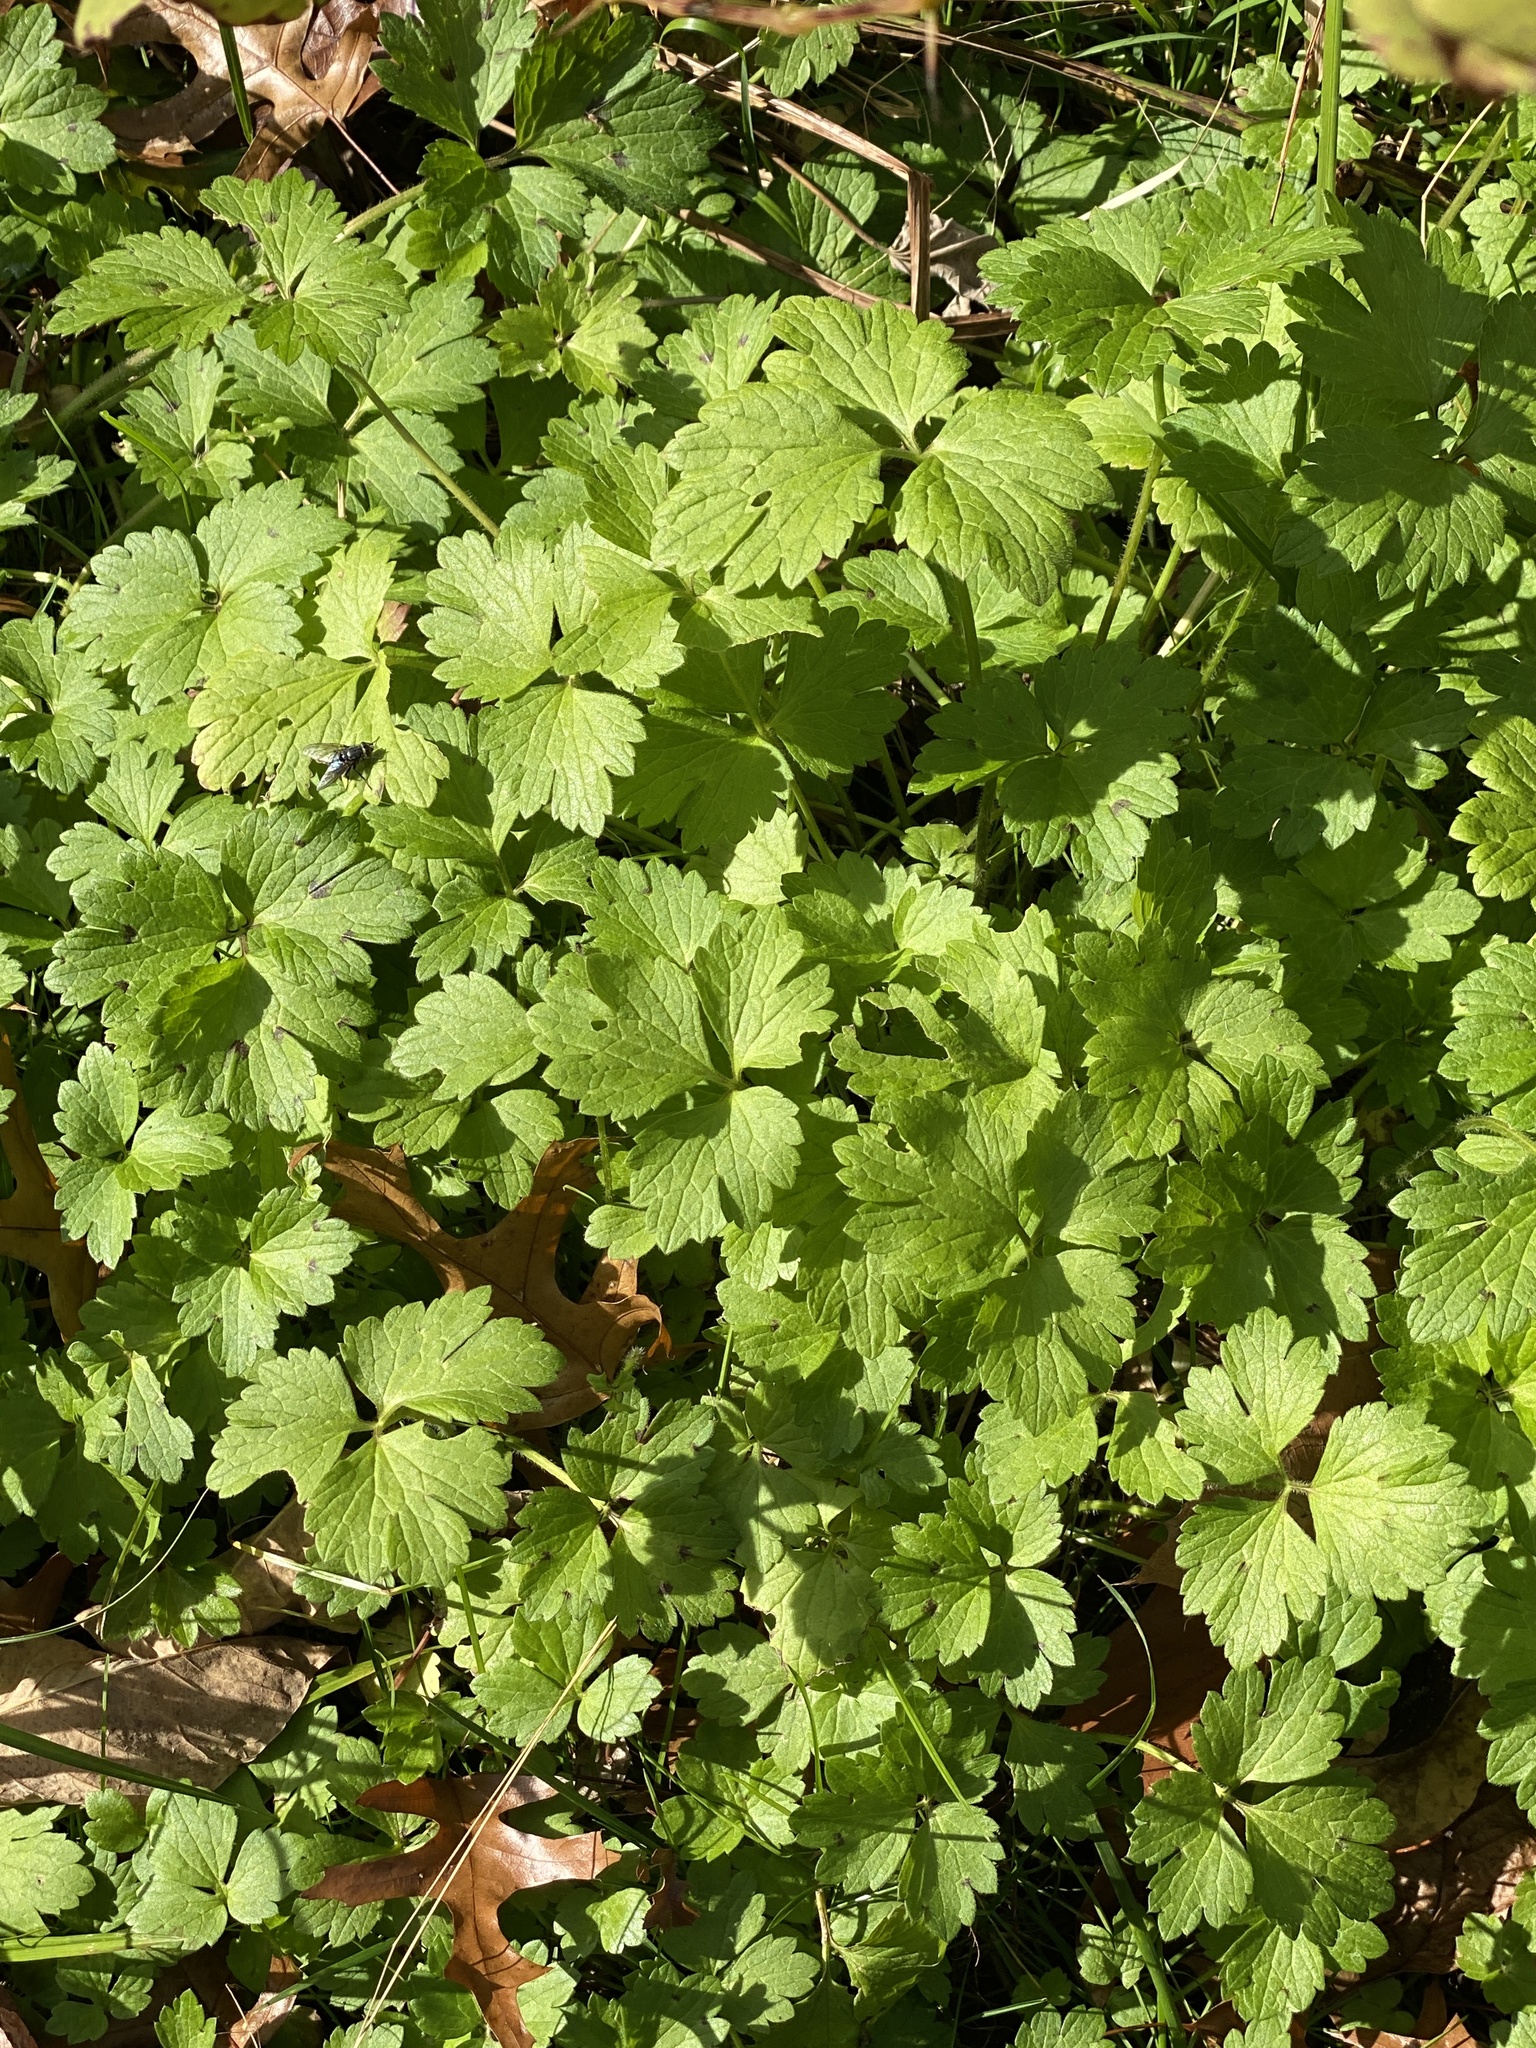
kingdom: Plantae
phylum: Tracheophyta
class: Magnoliopsida
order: Ranunculales
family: Ranunculaceae
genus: Ranunculus
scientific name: Ranunculus repens
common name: Creeping buttercup
